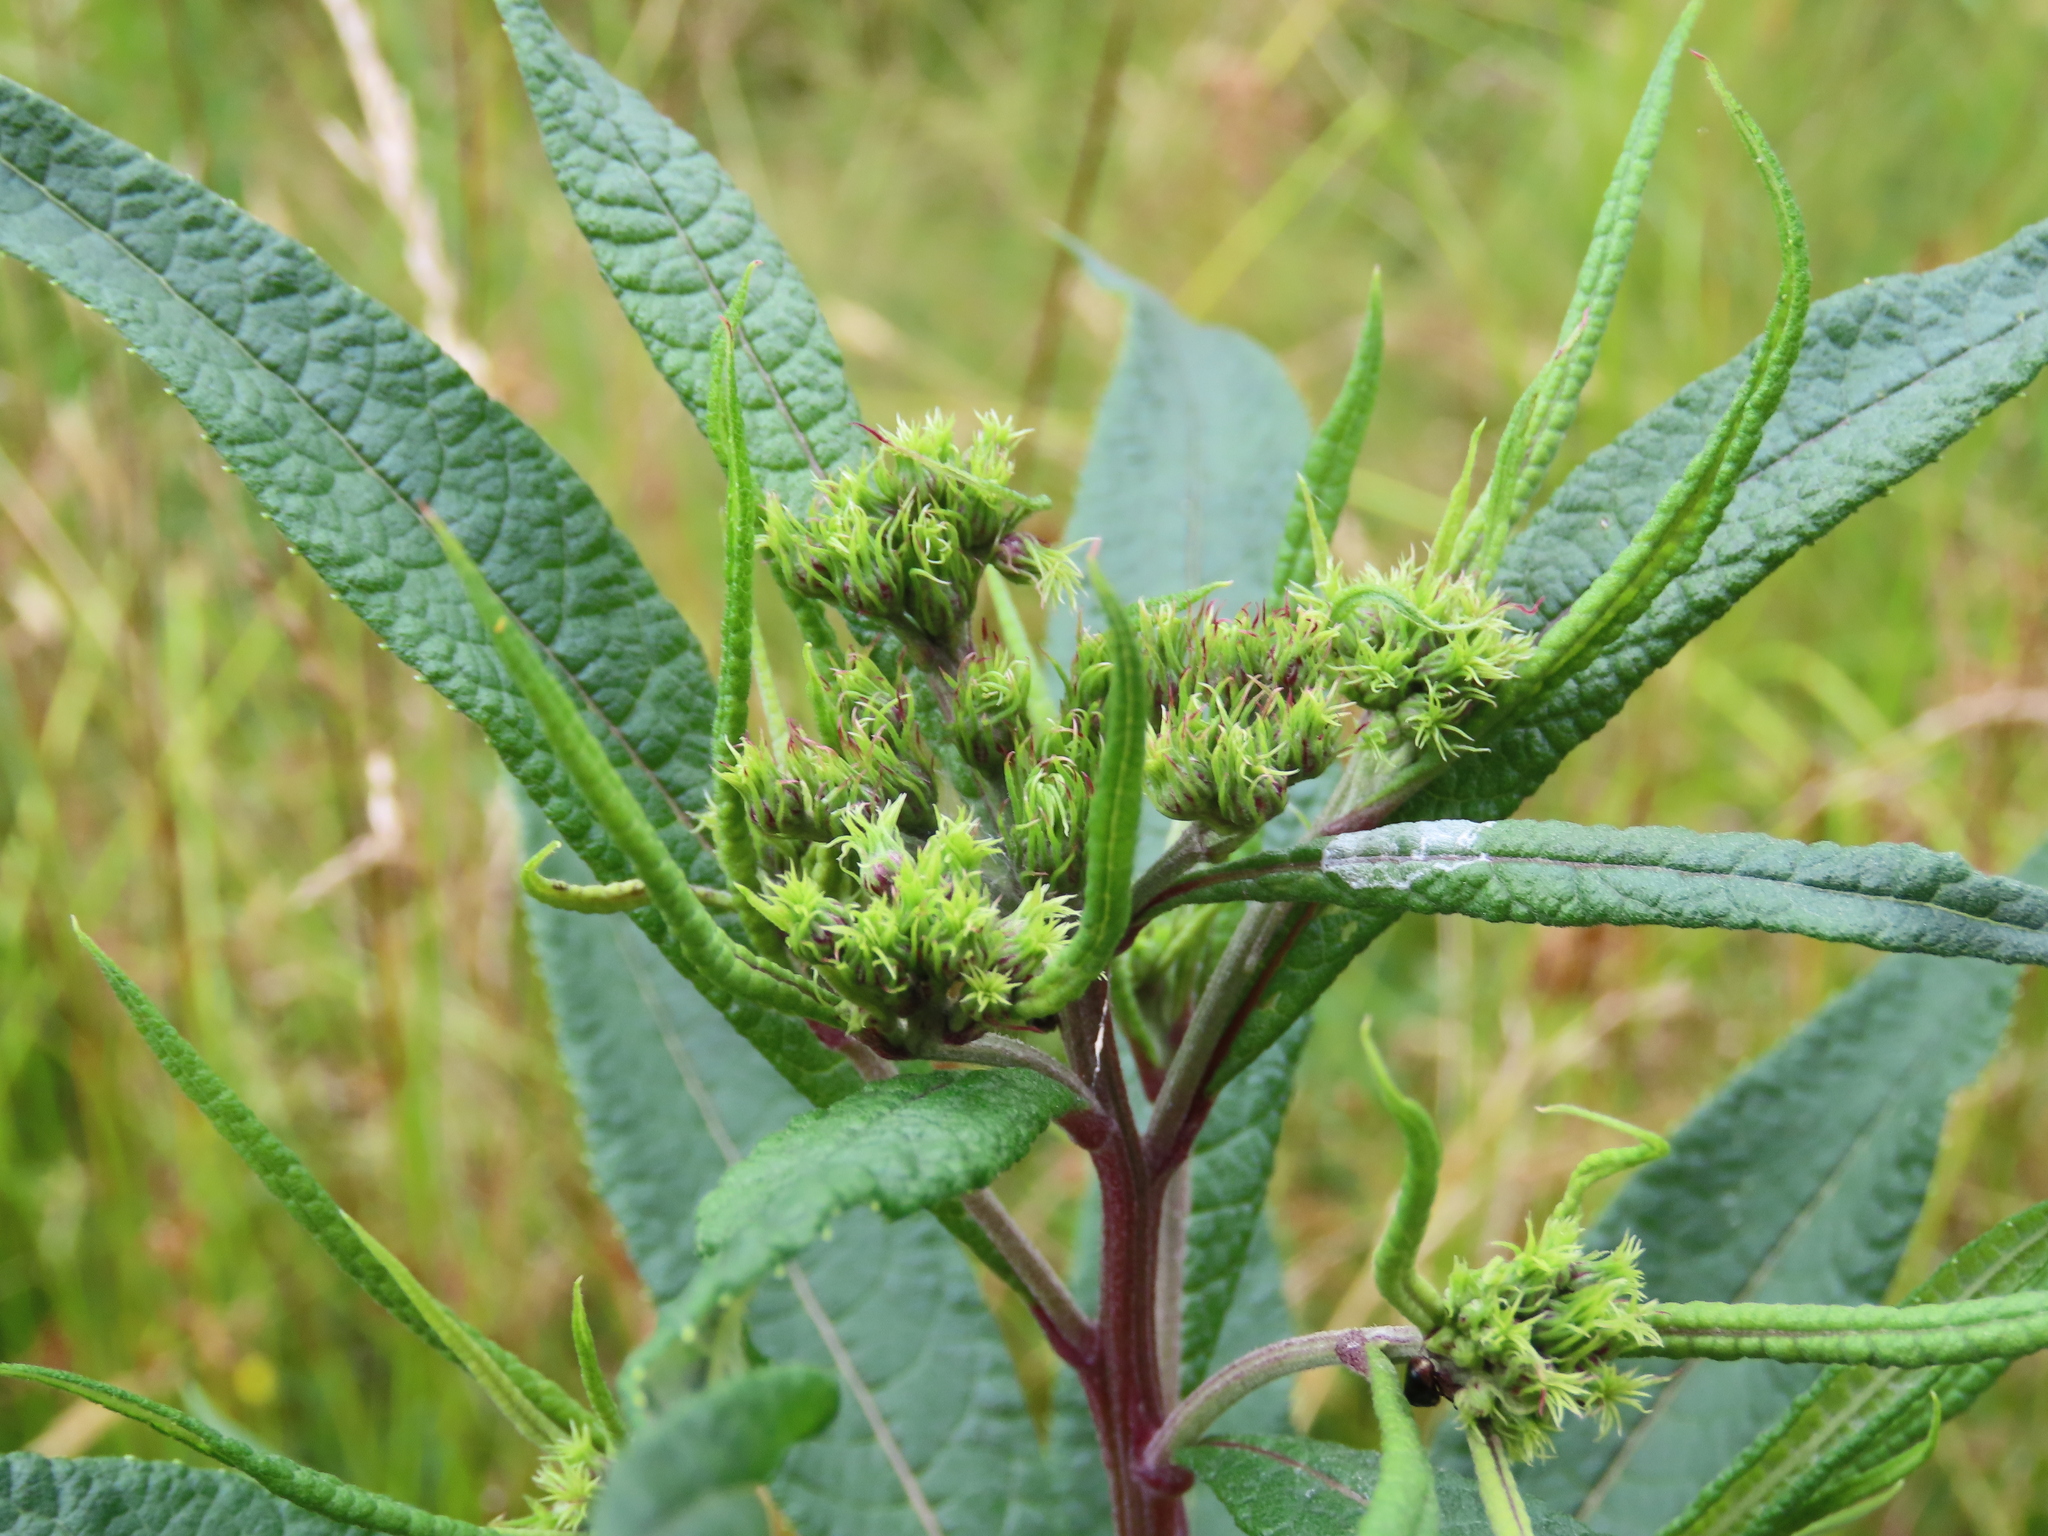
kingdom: Plantae
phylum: Tracheophyta
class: Magnoliopsida
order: Asterales
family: Asteraceae
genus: Vernonia
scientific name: Vernonia noveboracensis
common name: New york ironweed
